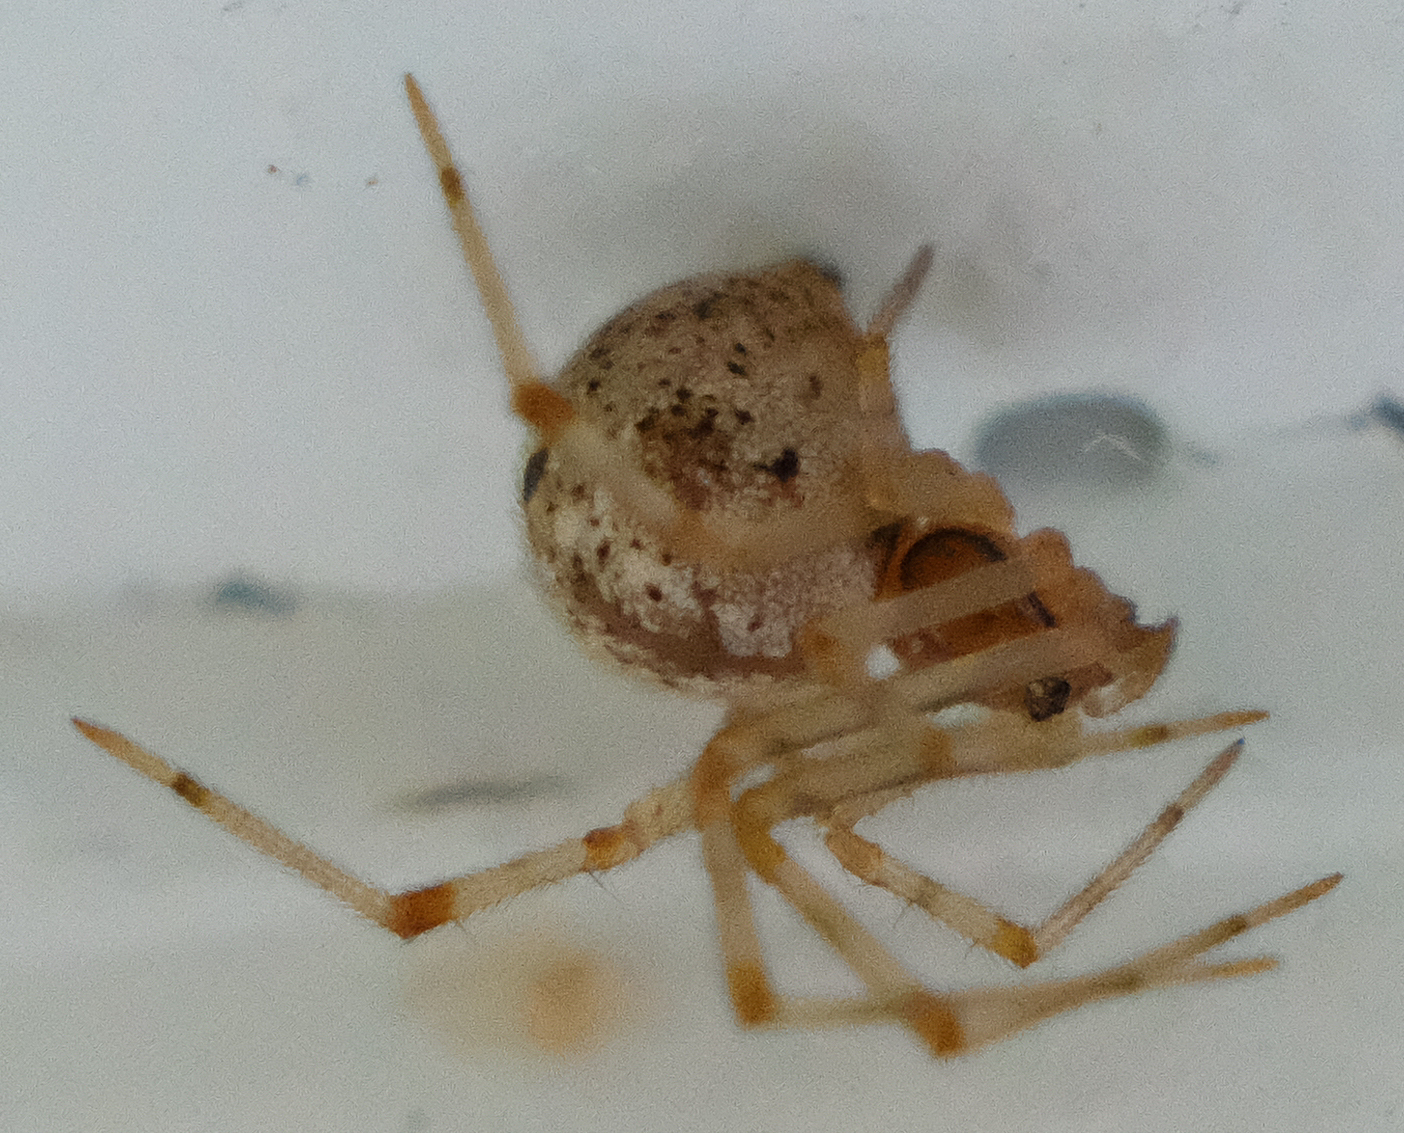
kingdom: Animalia
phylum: Arthropoda
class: Arachnida
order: Araneae
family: Theridiidae
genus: Parasteatoda
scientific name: Parasteatoda tepidariorum
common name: Common house spider
